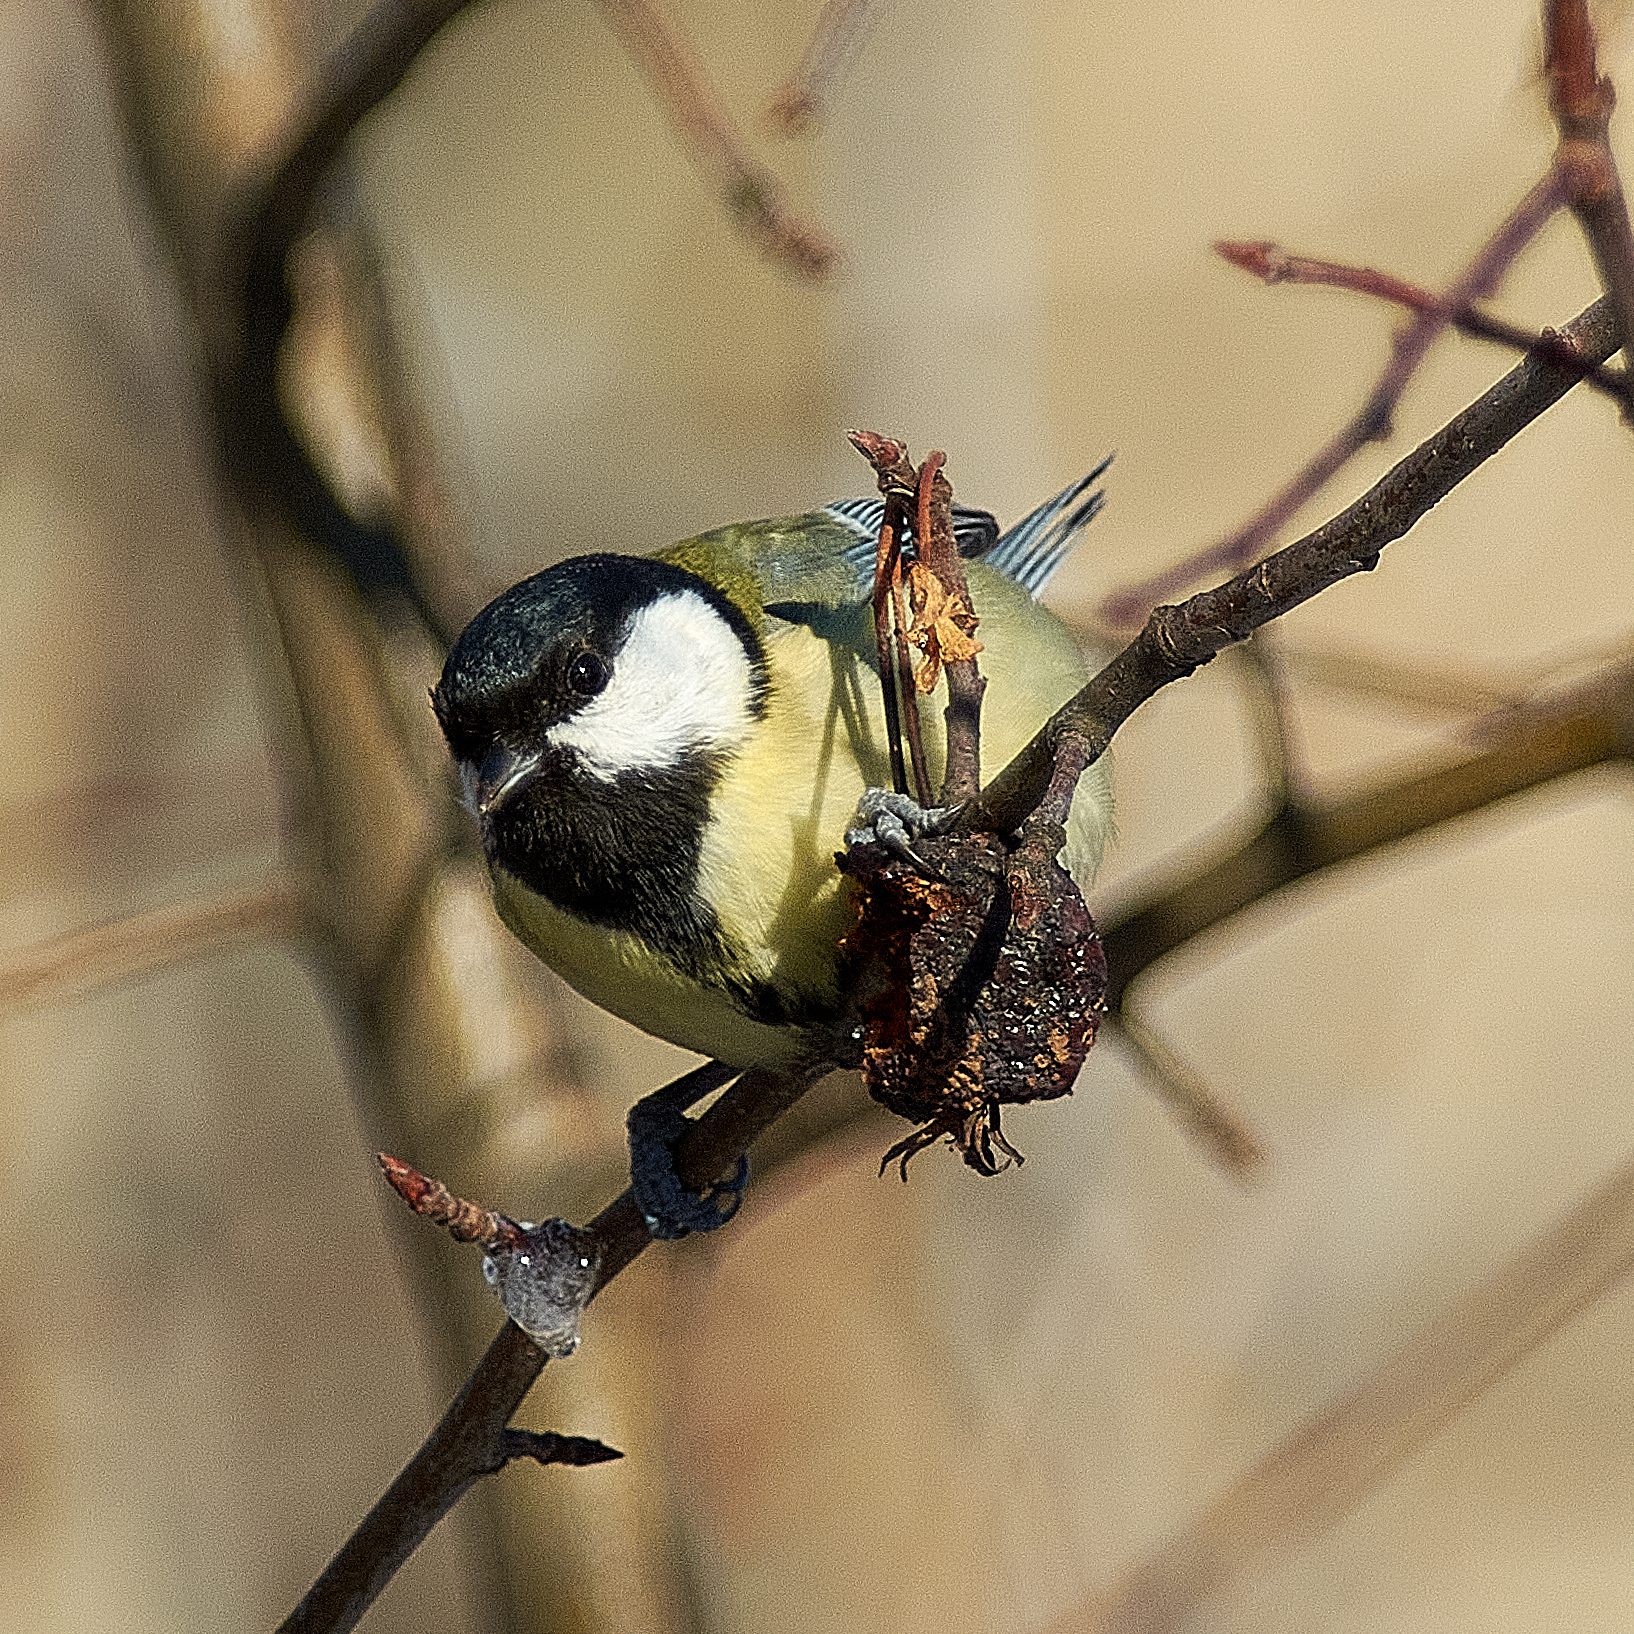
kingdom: Animalia
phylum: Chordata
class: Aves
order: Passeriformes
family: Paridae
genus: Parus
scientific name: Parus major
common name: Great tit
